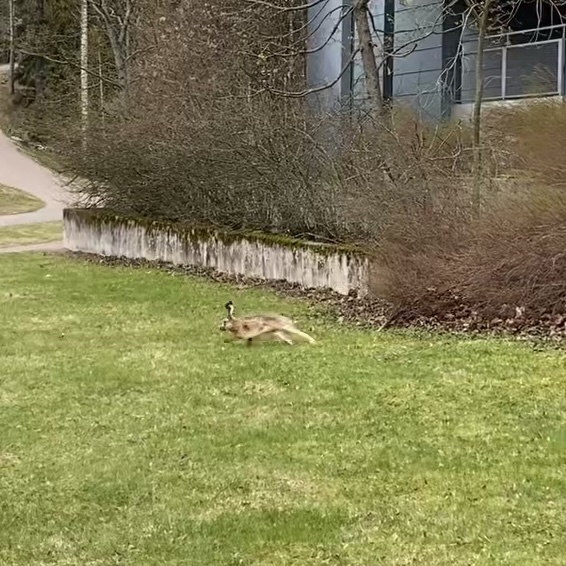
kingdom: Animalia
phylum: Chordata
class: Mammalia
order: Lagomorpha
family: Leporidae
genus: Lepus
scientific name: Lepus europaeus
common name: European hare
